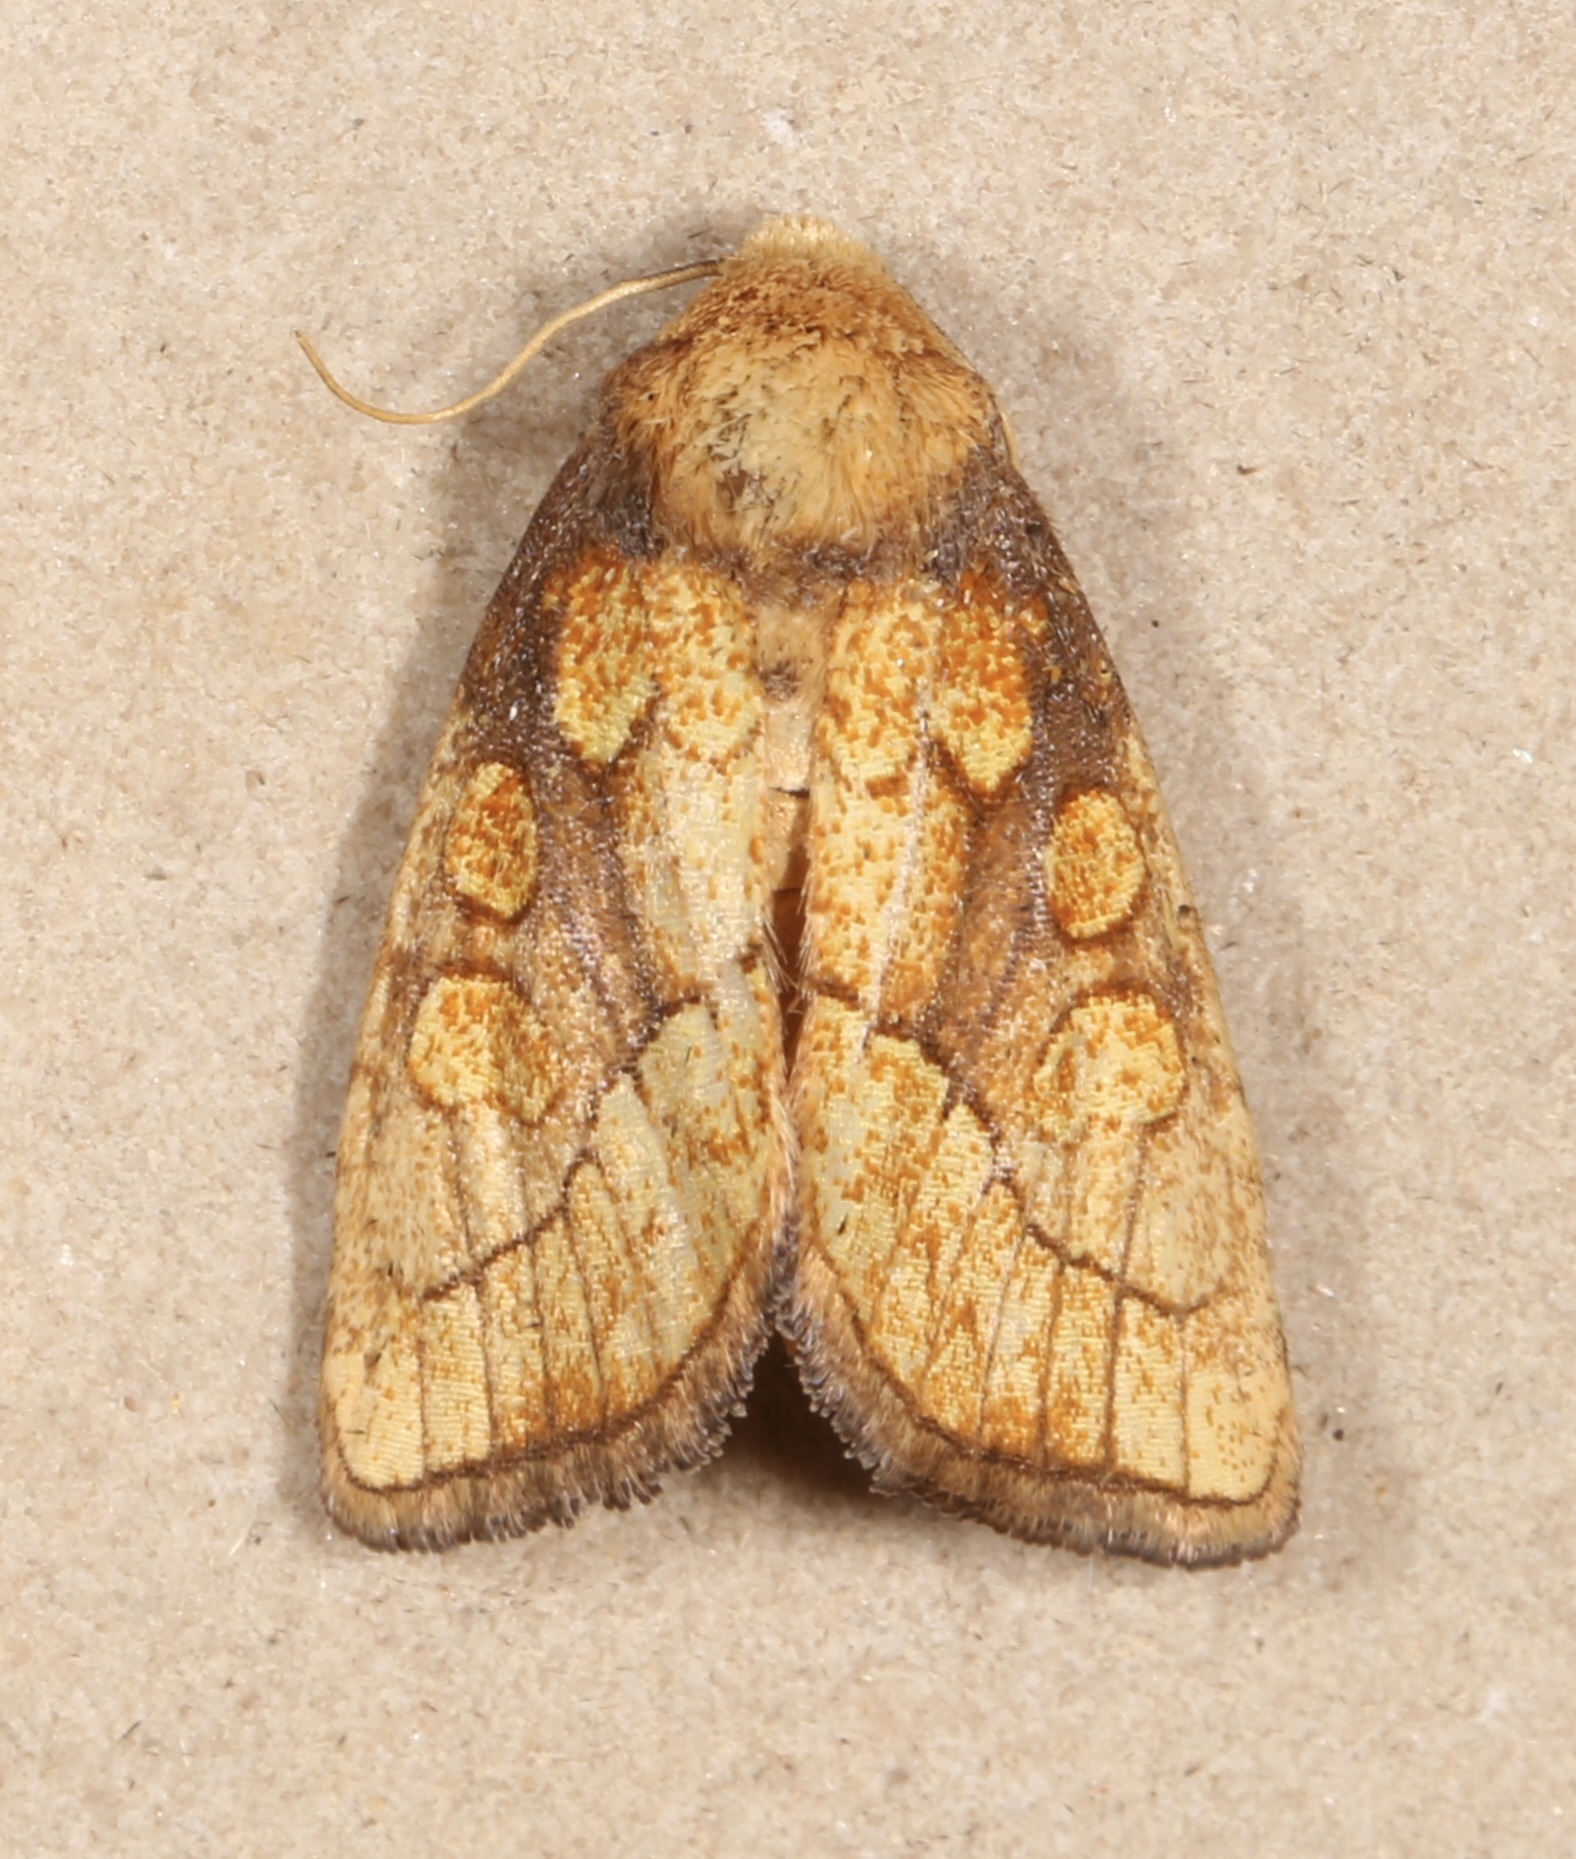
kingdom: Animalia
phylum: Arthropoda
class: Insecta
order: Lepidoptera
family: Noctuidae
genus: Nocloa
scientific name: Nocloa alcandra
